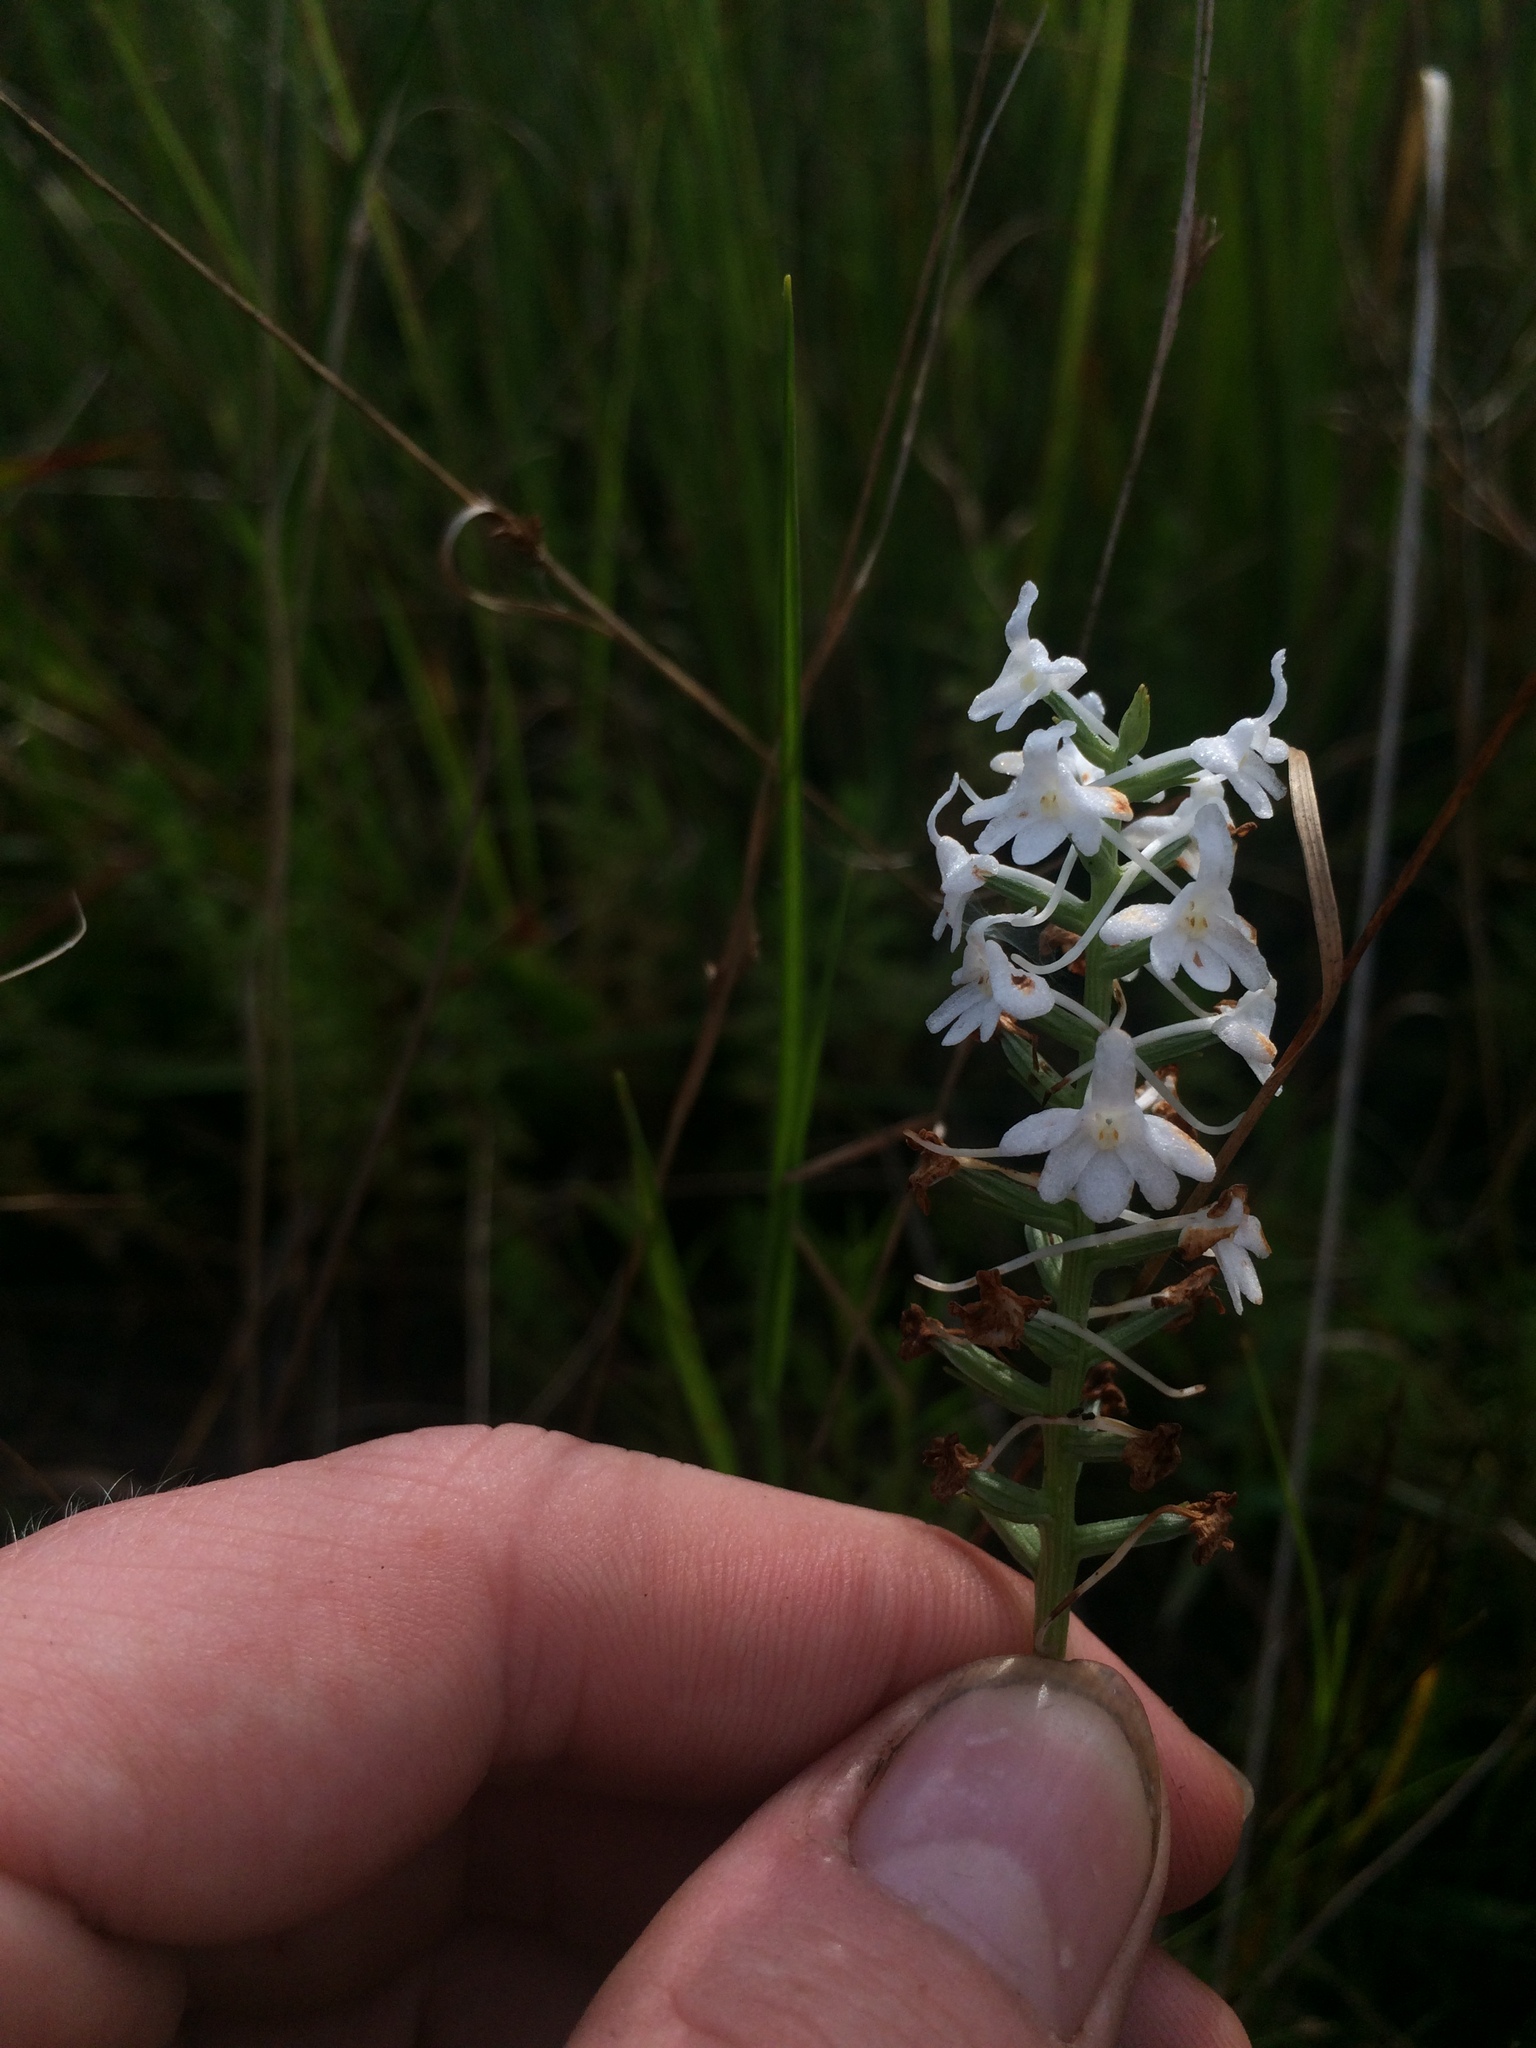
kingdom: Plantae
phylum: Tracheophyta
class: Liliopsida
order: Asparagales
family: Orchidaceae
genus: Platanthera
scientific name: Platanthera nivea
